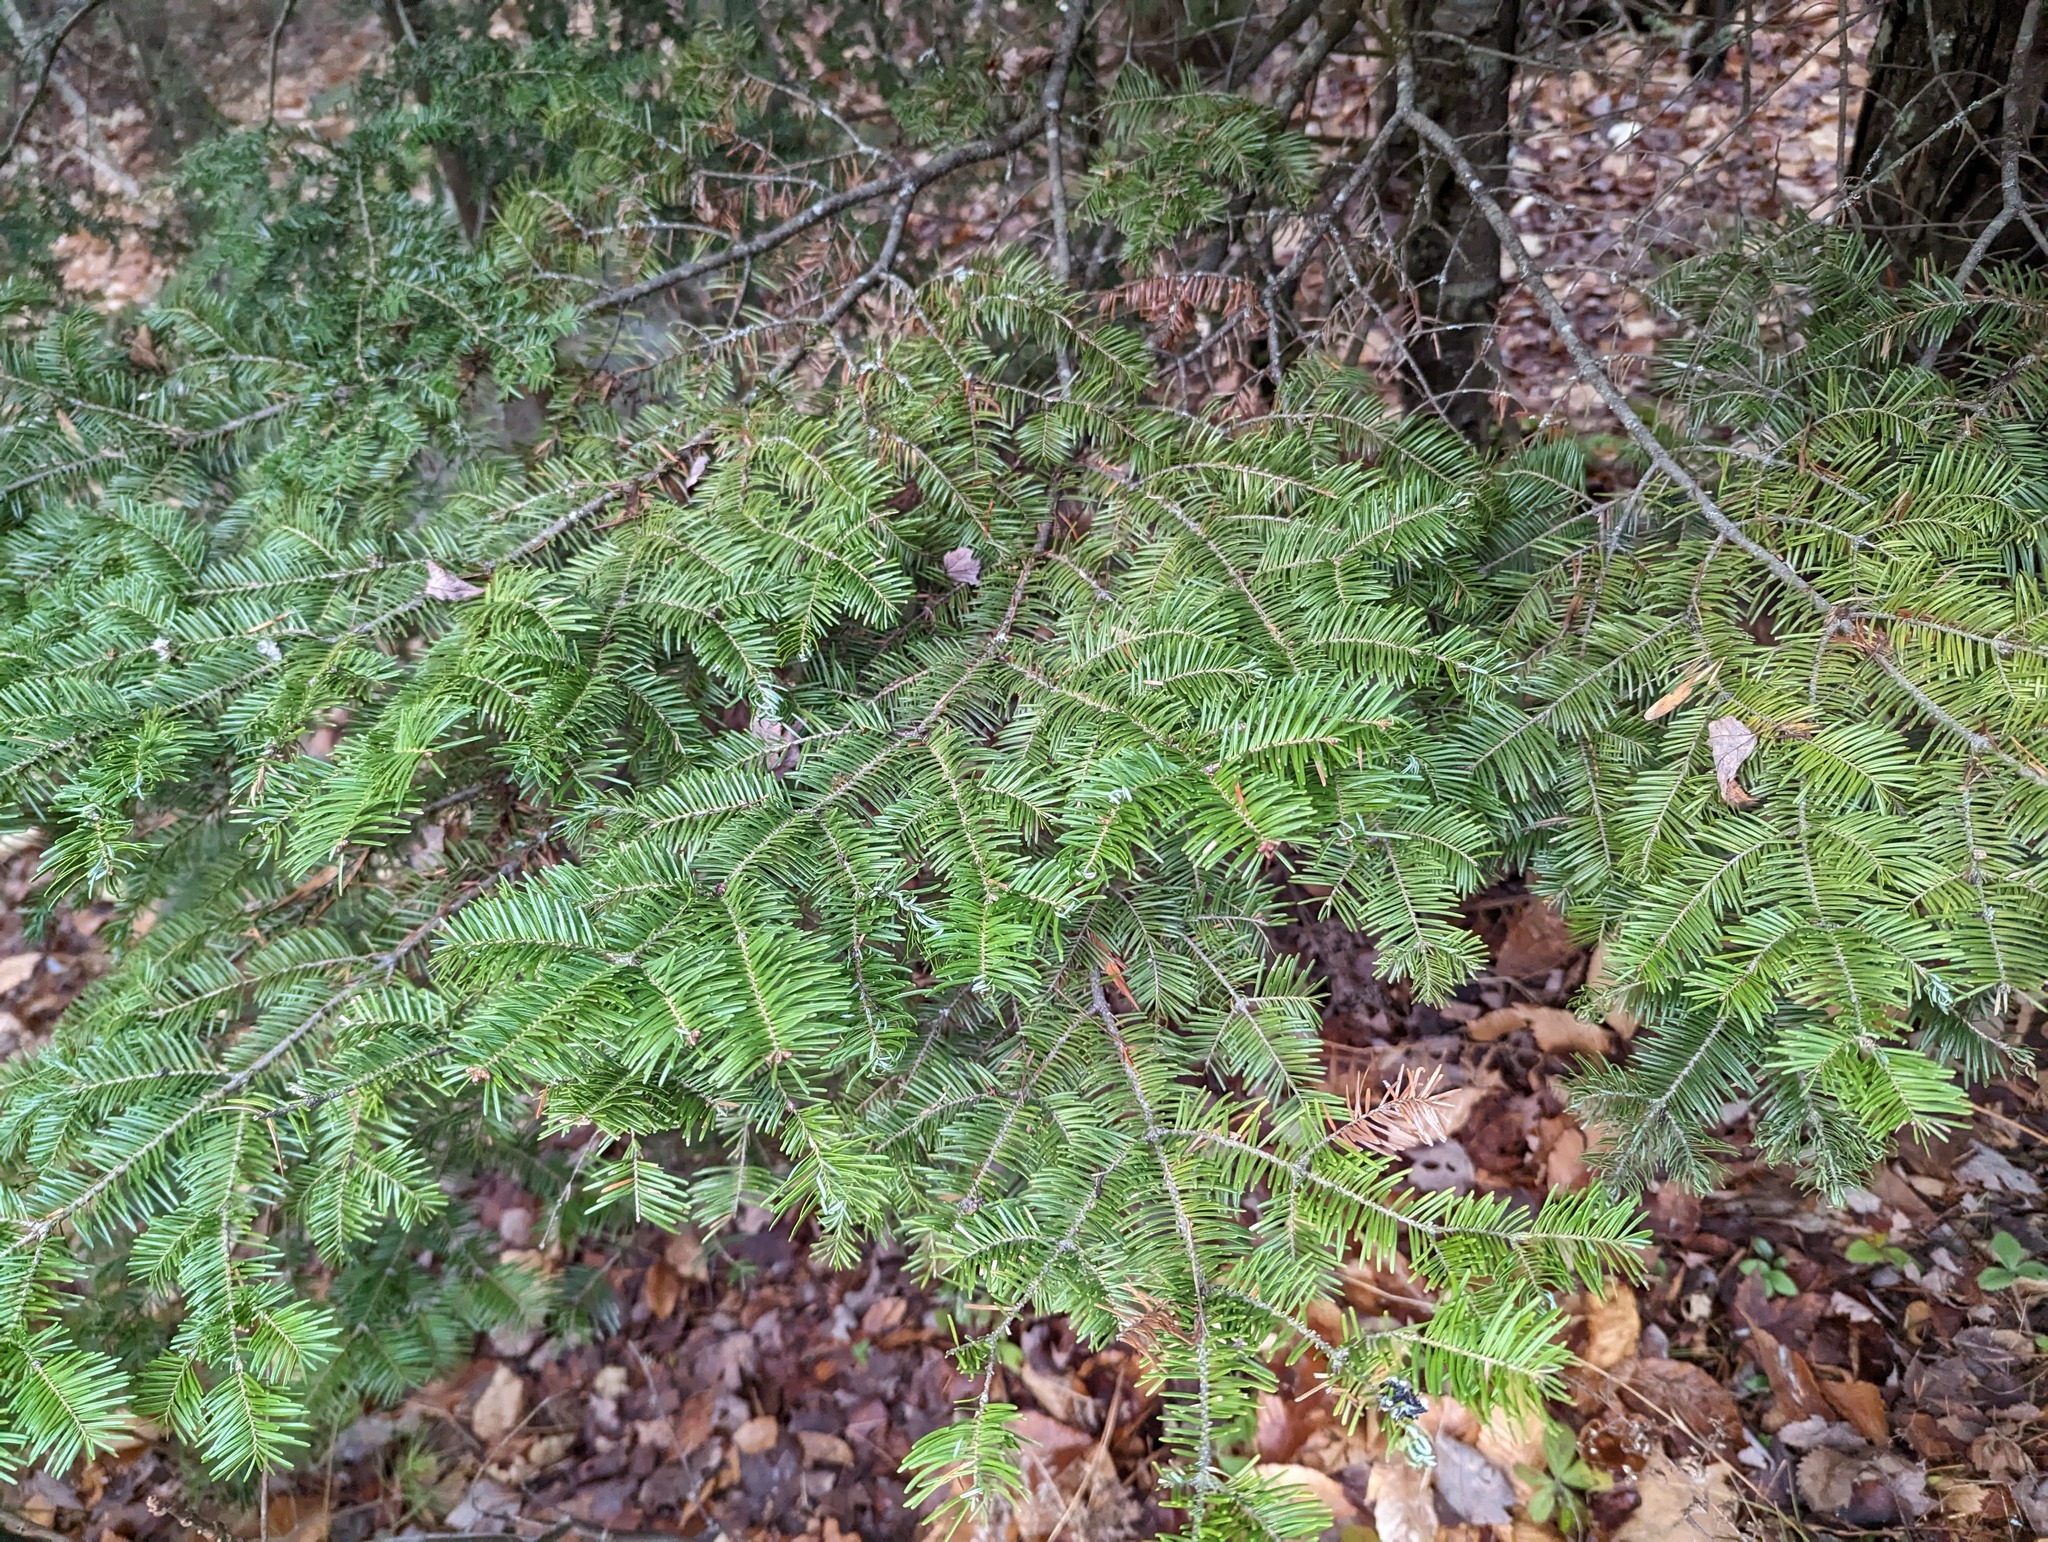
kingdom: Plantae
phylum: Tracheophyta
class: Pinopsida
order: Pinales
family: Pinaceae
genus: Abies
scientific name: Abies balsamea
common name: Balsam fir
